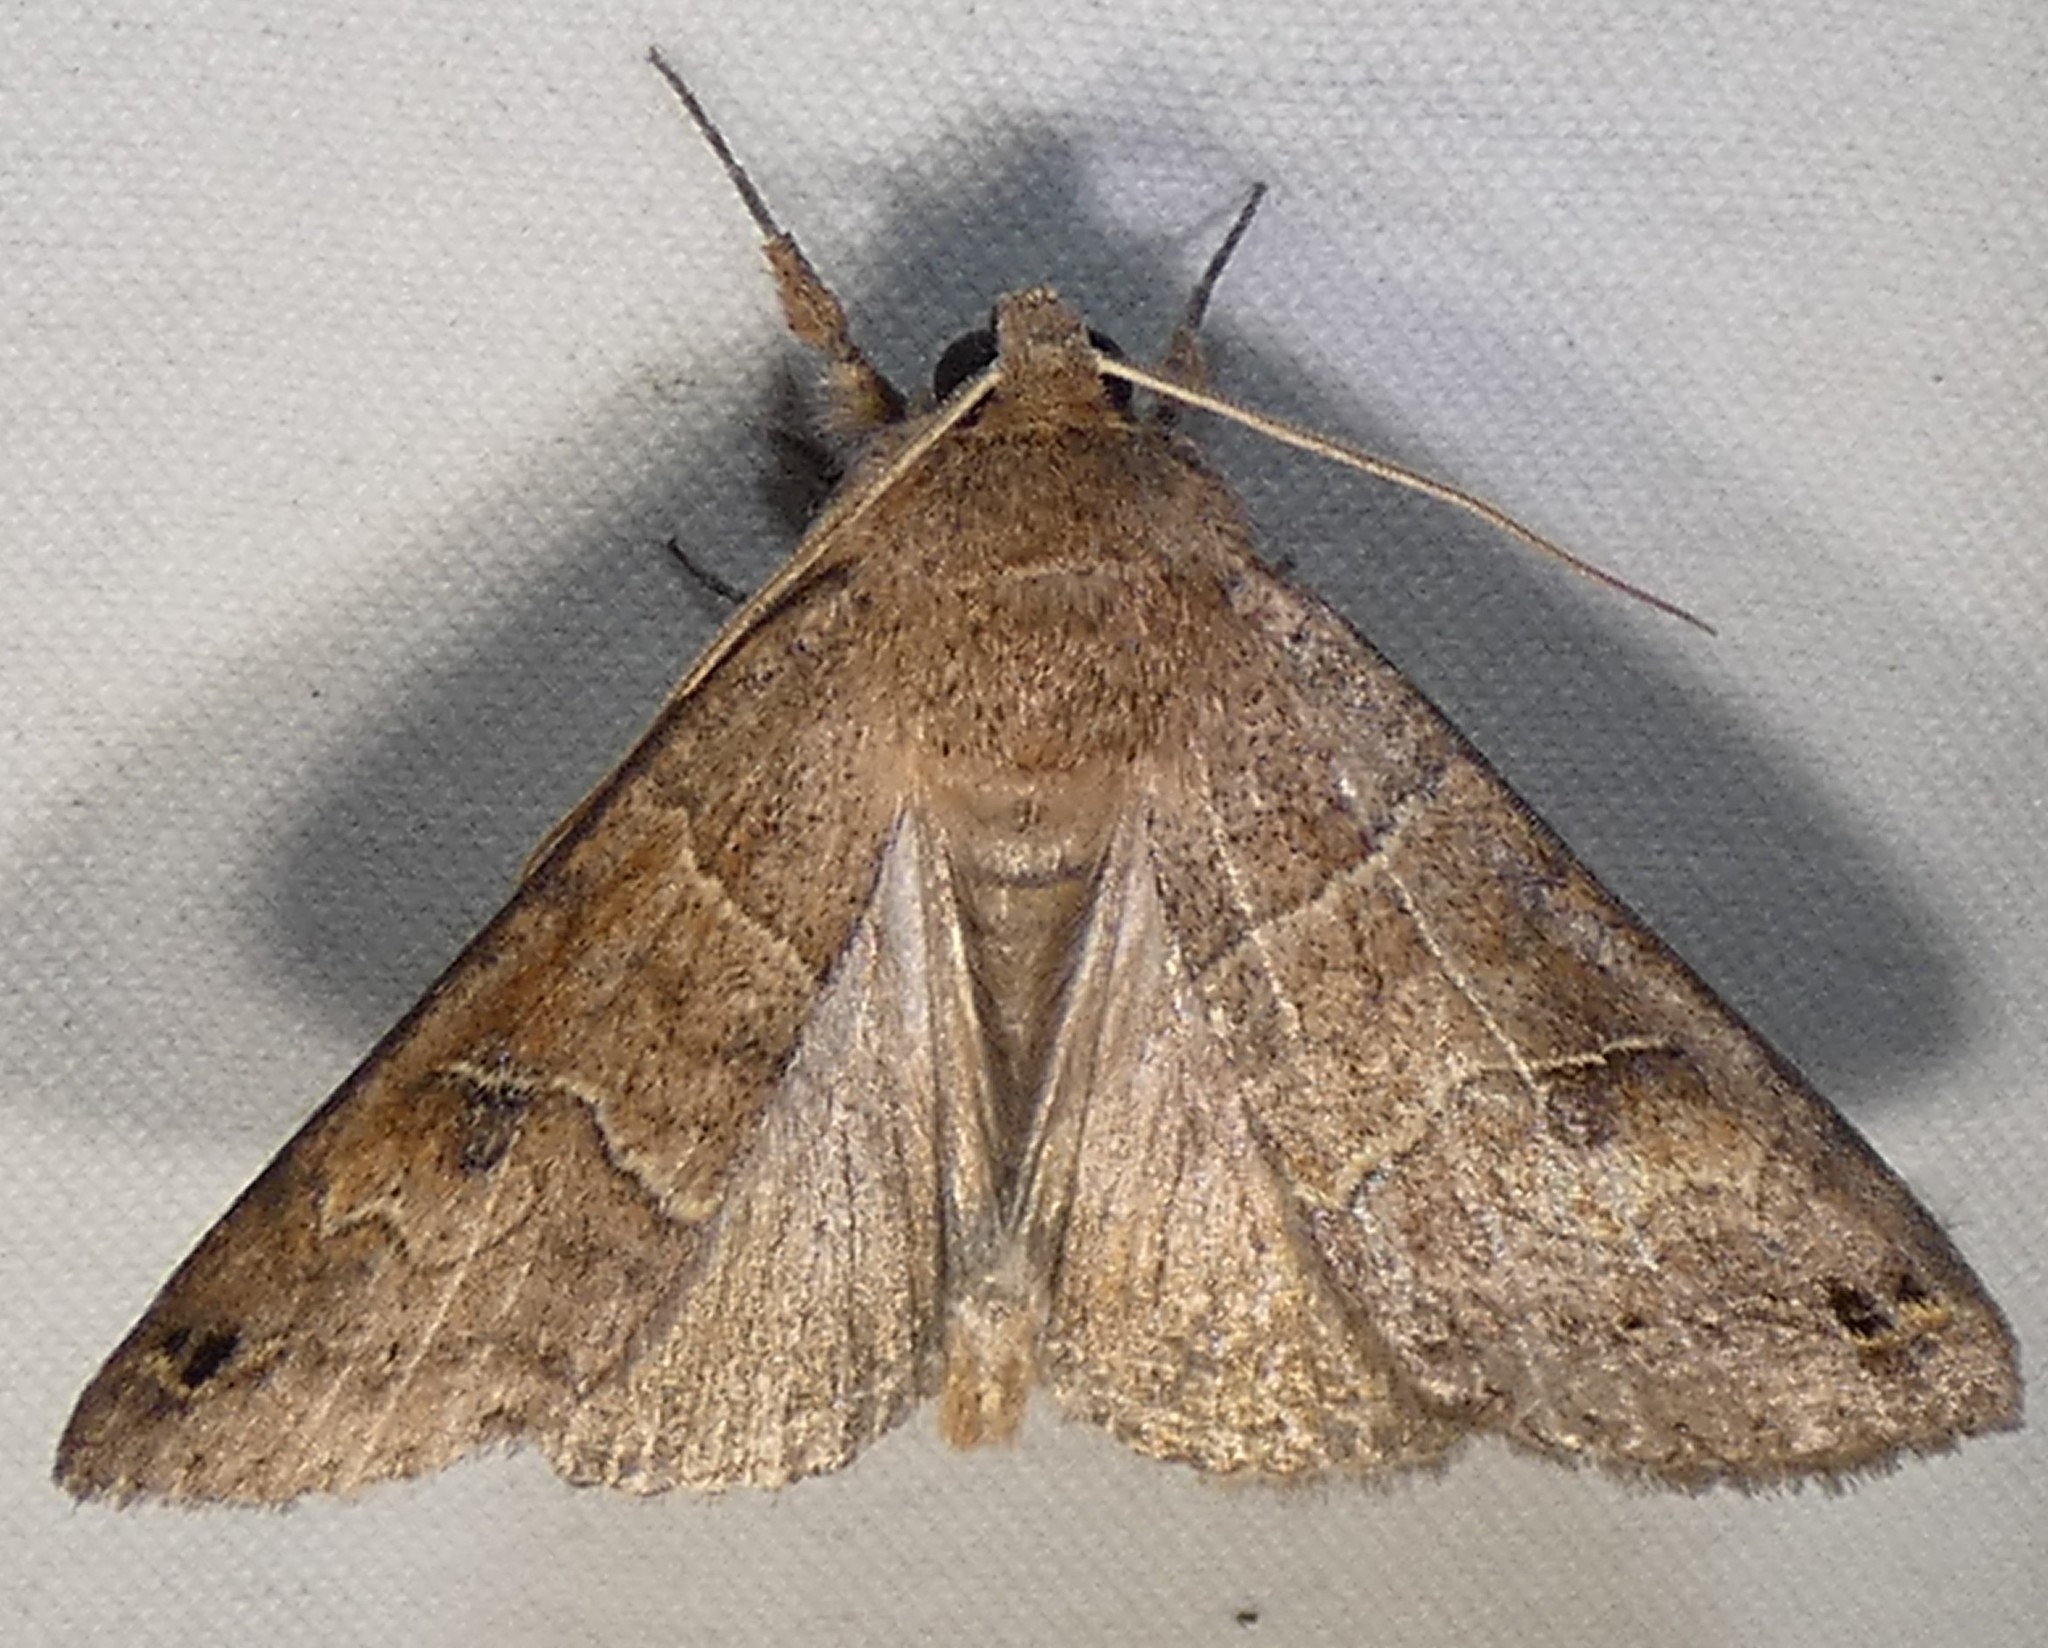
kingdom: Animalia
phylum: Arthropoda
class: Insecta
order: Lepidoptera
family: Erebidae
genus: Cissusa
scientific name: Cissusa spadix
